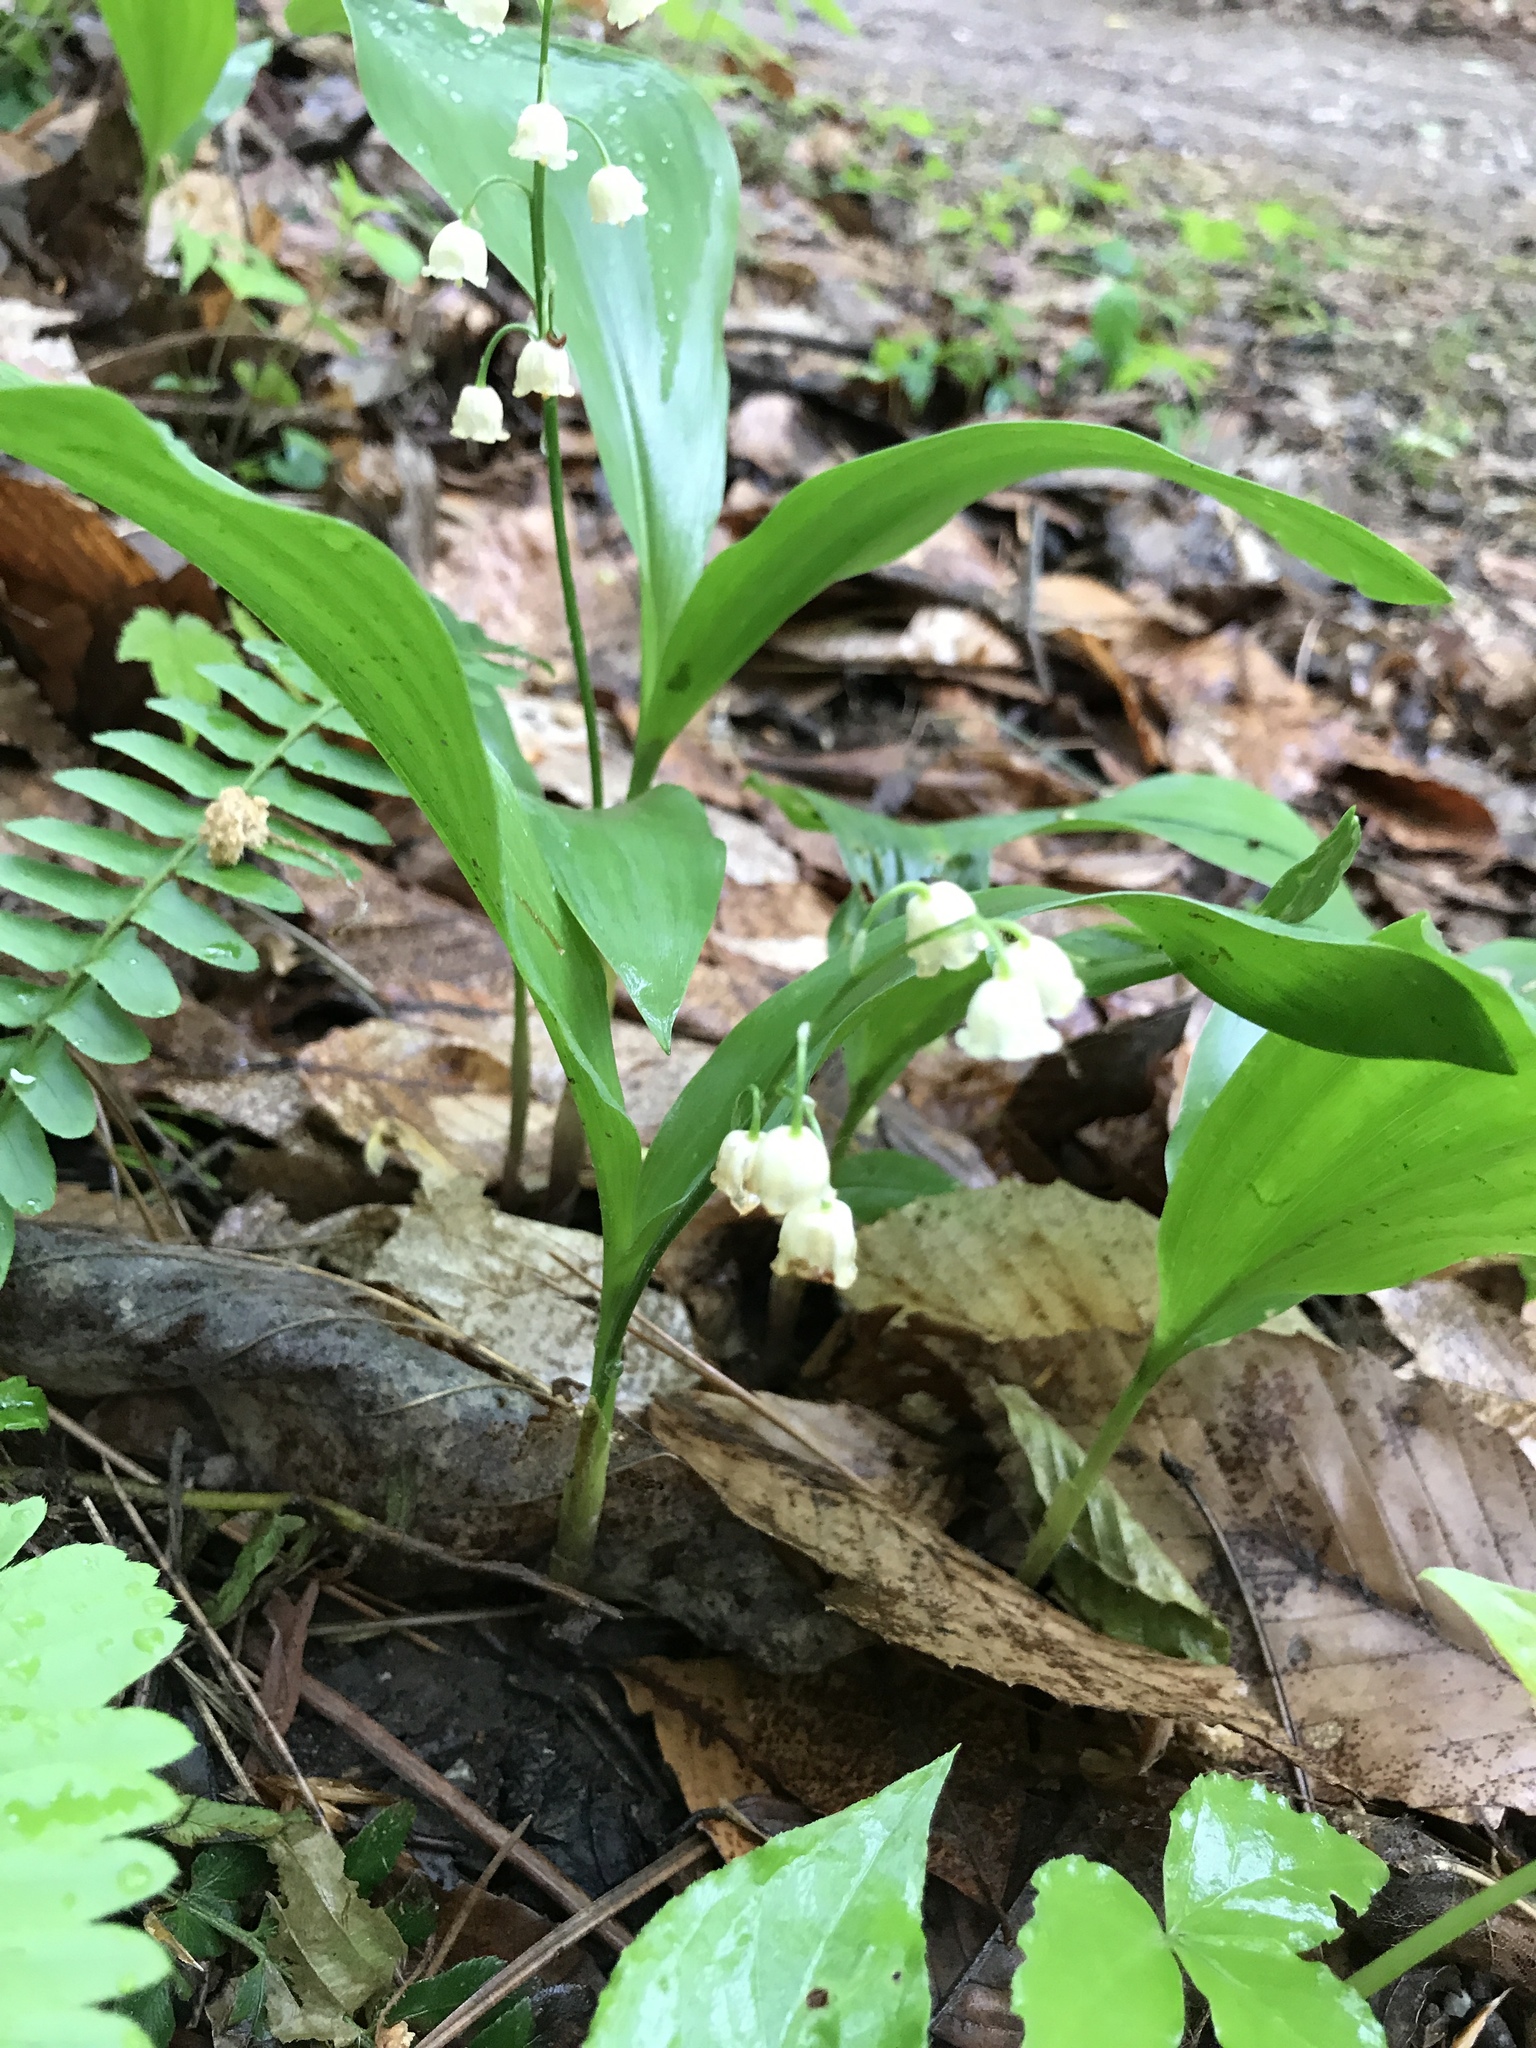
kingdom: Plantae
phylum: Tracheophyta
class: Liliopsida
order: Asparagales
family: Asparagaceae
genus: Convallaria
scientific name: Convallaria majalis
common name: Lily-of-the-valley
